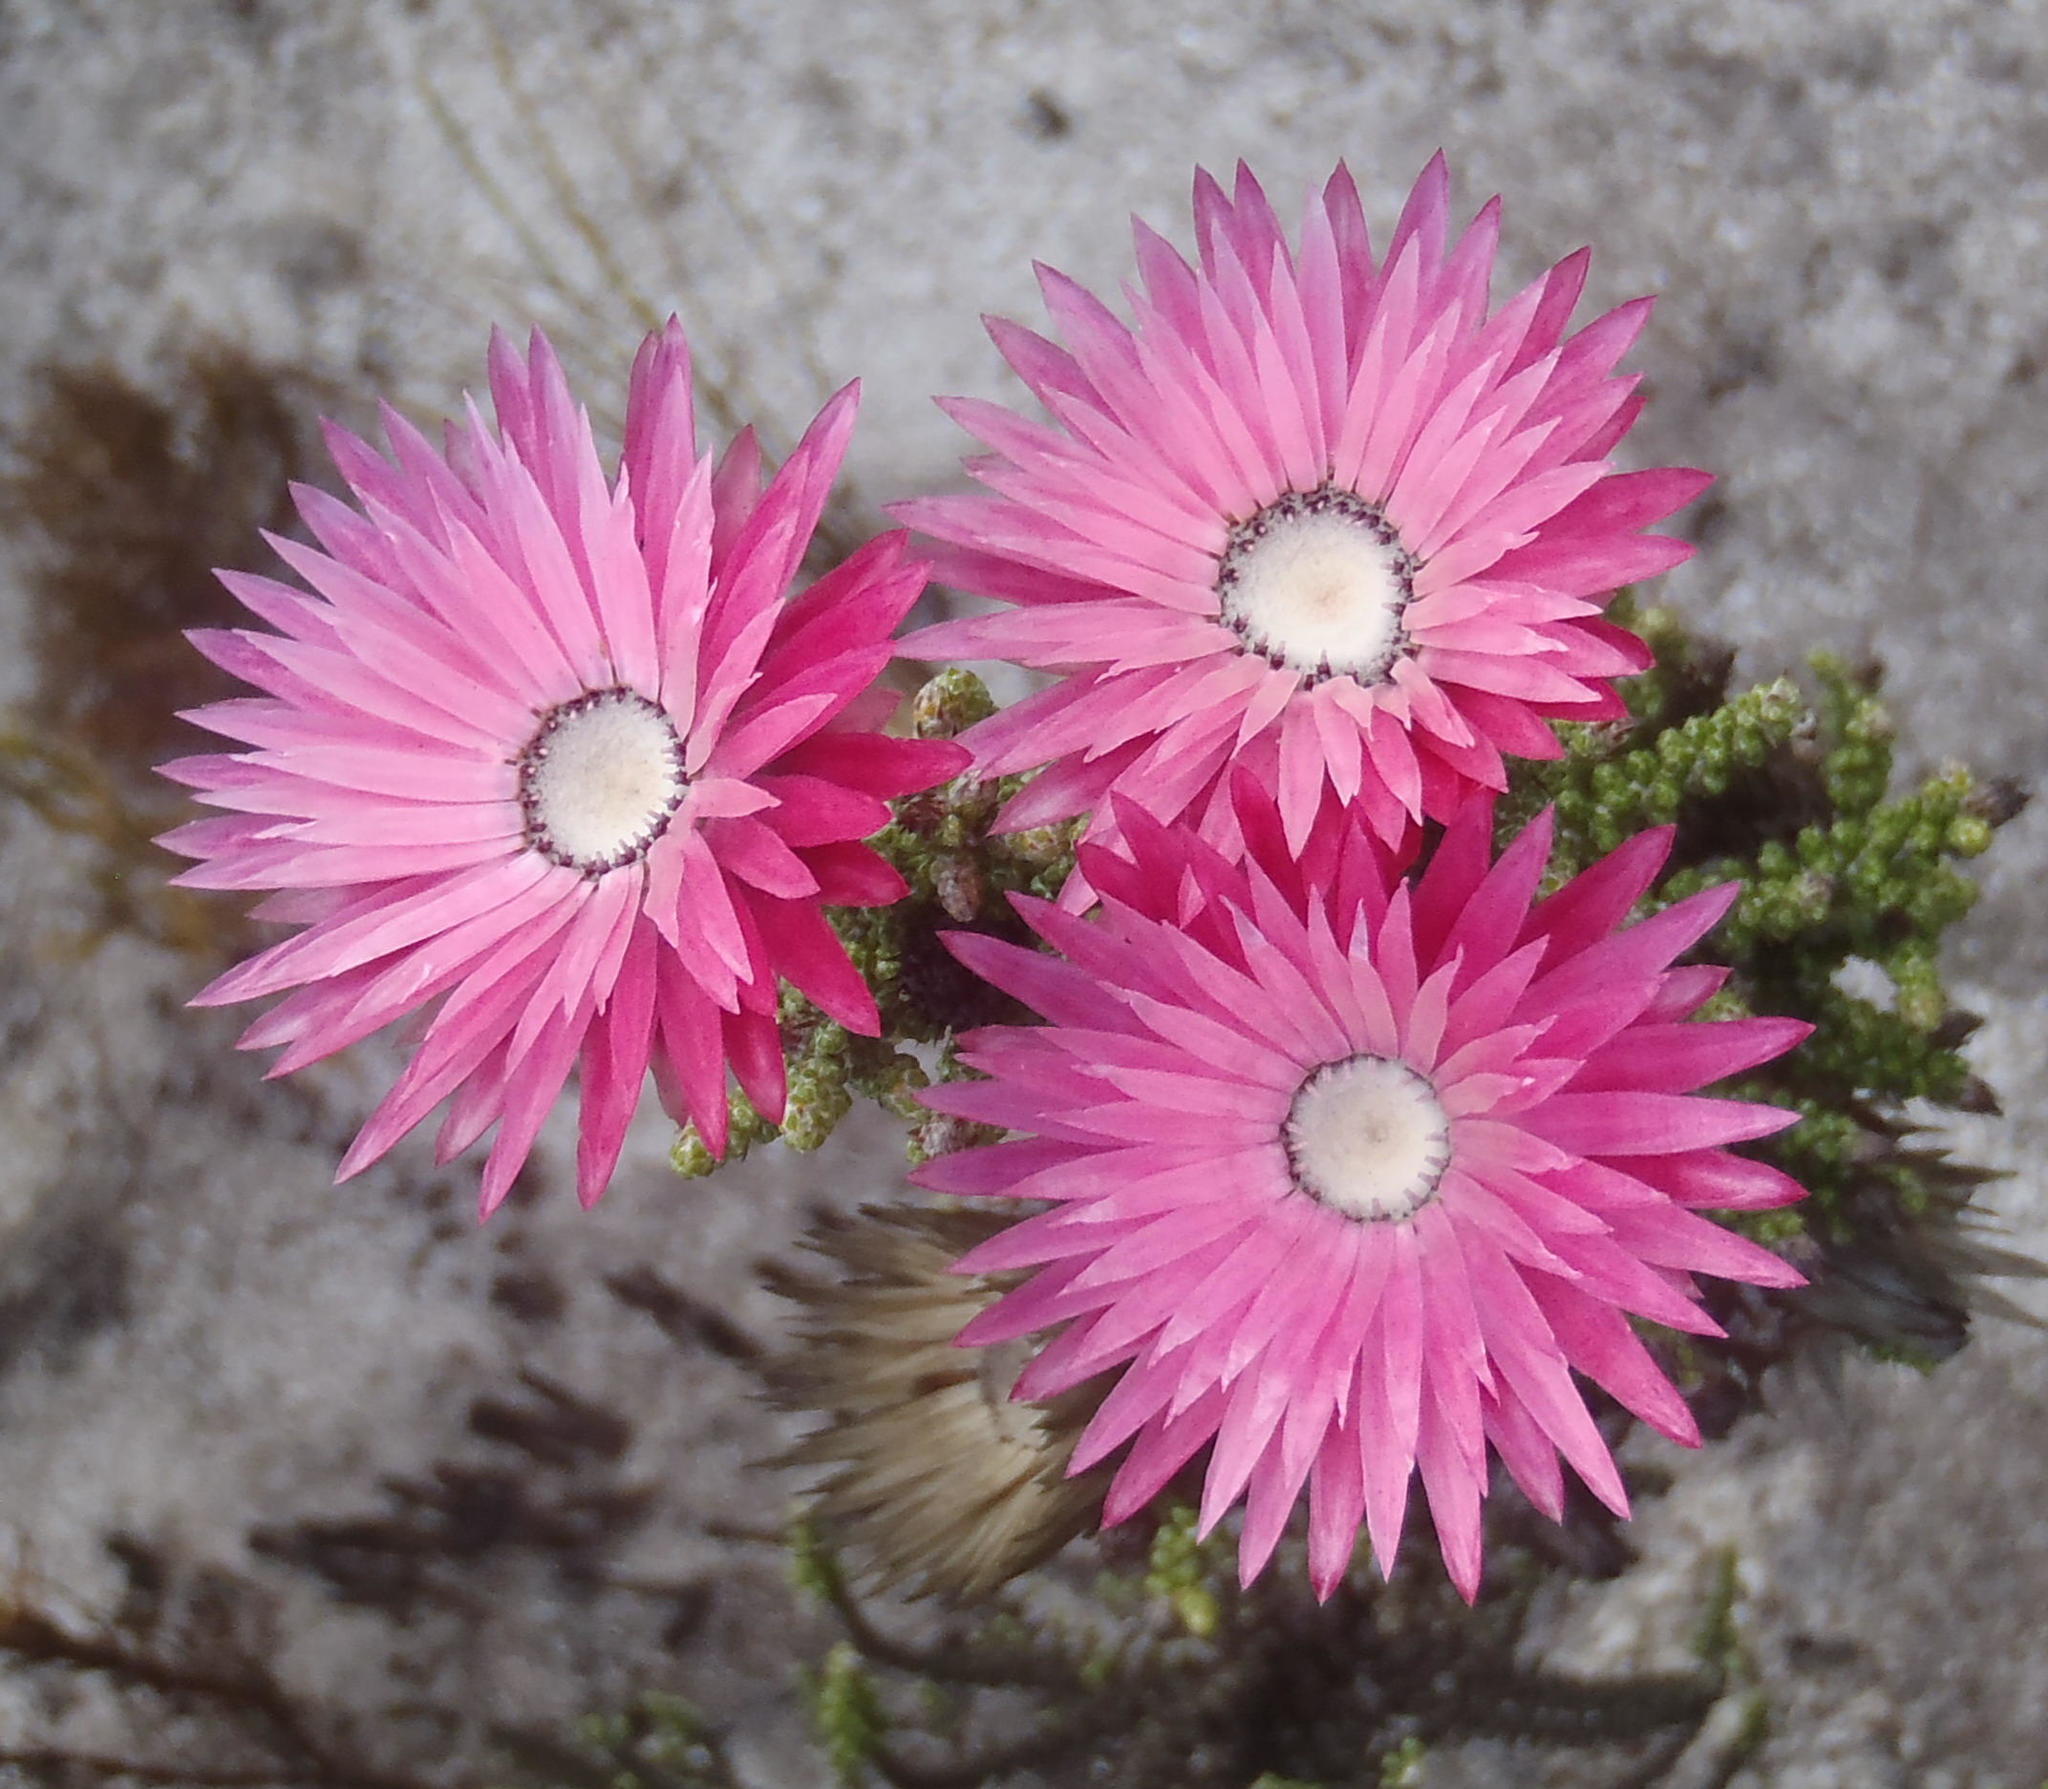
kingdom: Plantae
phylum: Tracheophyta
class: Magnoliopsida
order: Asterales
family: Asteraceae
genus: Phaenocoma
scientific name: Phaenocoma prolifera
